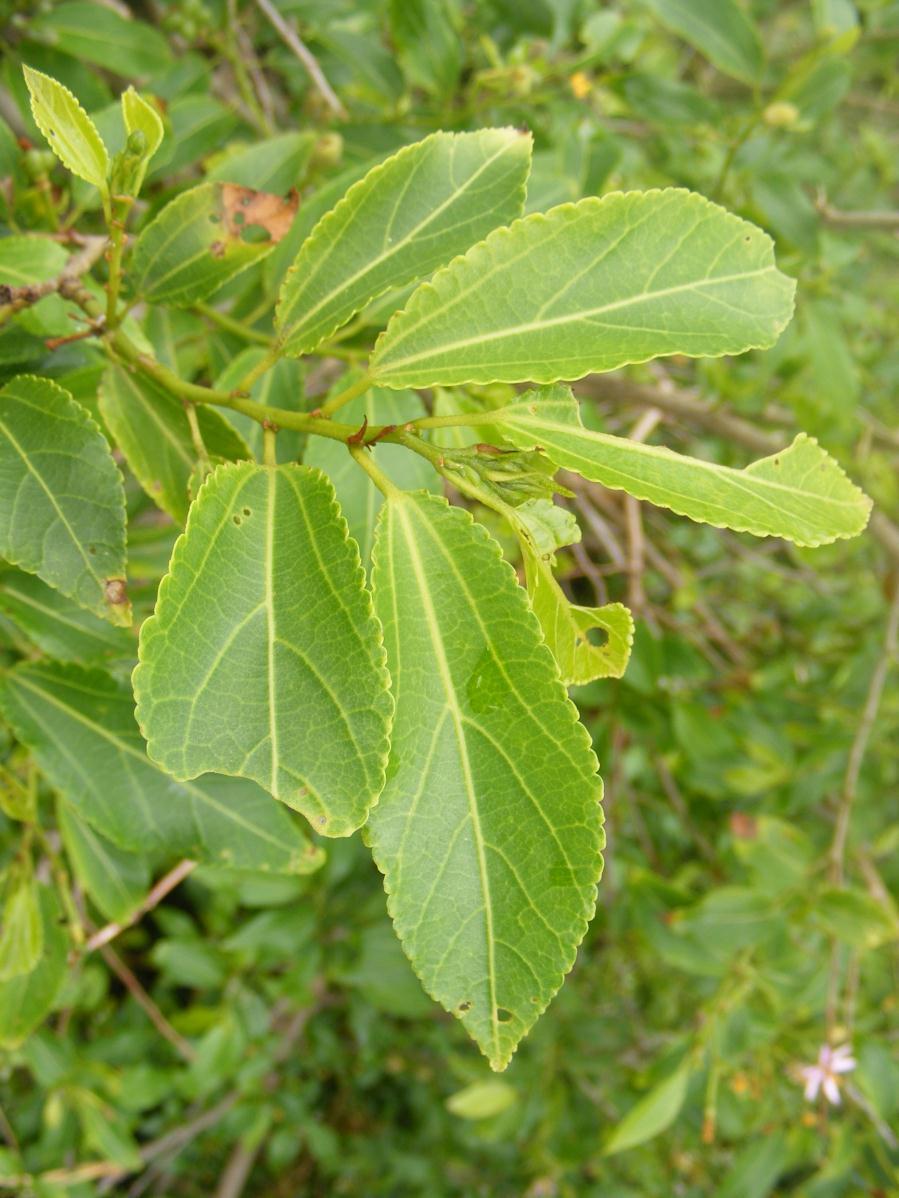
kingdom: Plantae
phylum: Tracheophyta
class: Magnoliopsida
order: Malvales
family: Malvaceae
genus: Grewia
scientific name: Grewia occidentalis
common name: Crossberry
